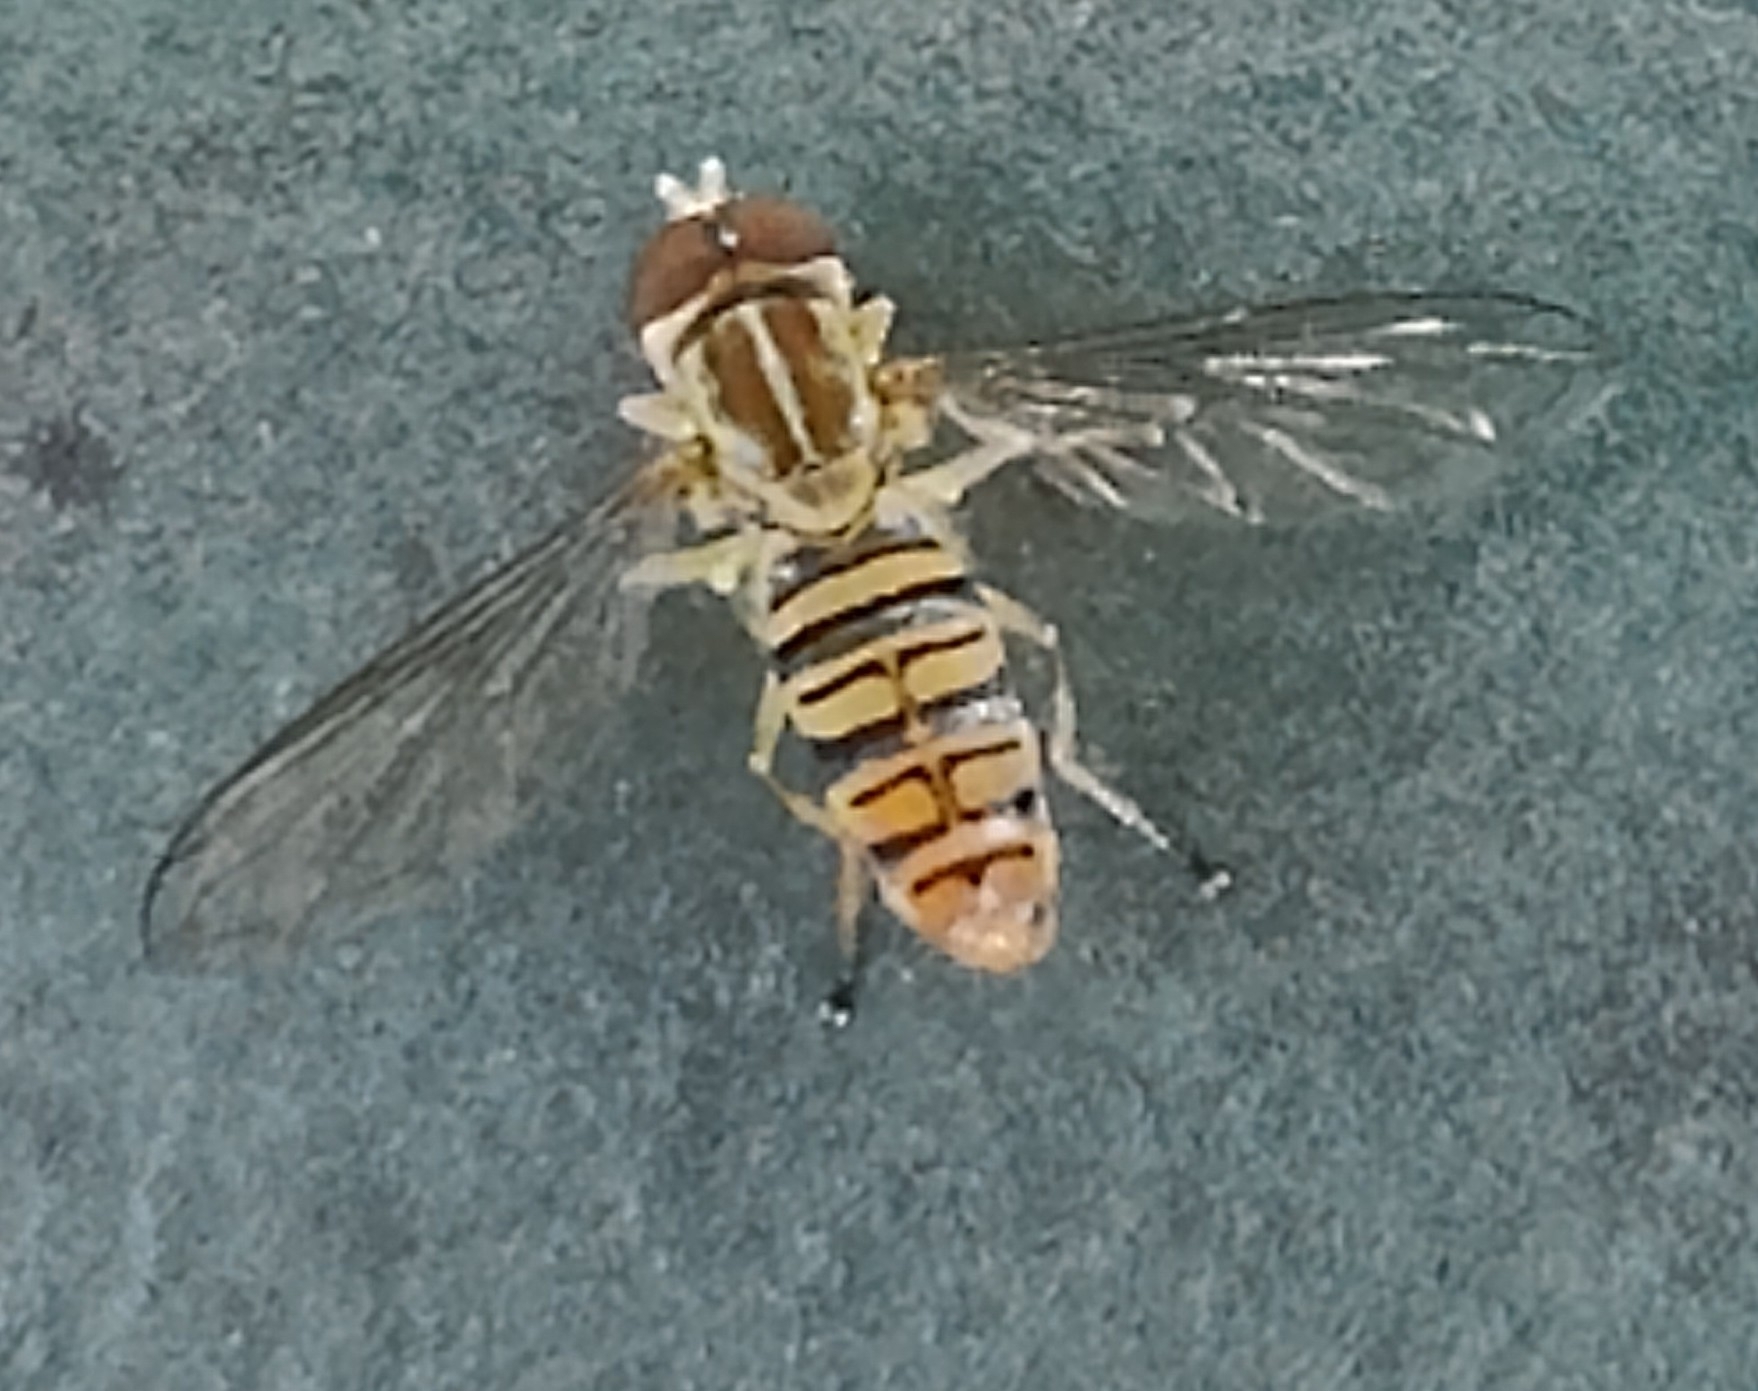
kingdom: Animalia
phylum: Arthropoda
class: Insecta
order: Diptera
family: Syrphidae
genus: Toxomerus
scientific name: Toxomerus politus
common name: Maize calligrapher
